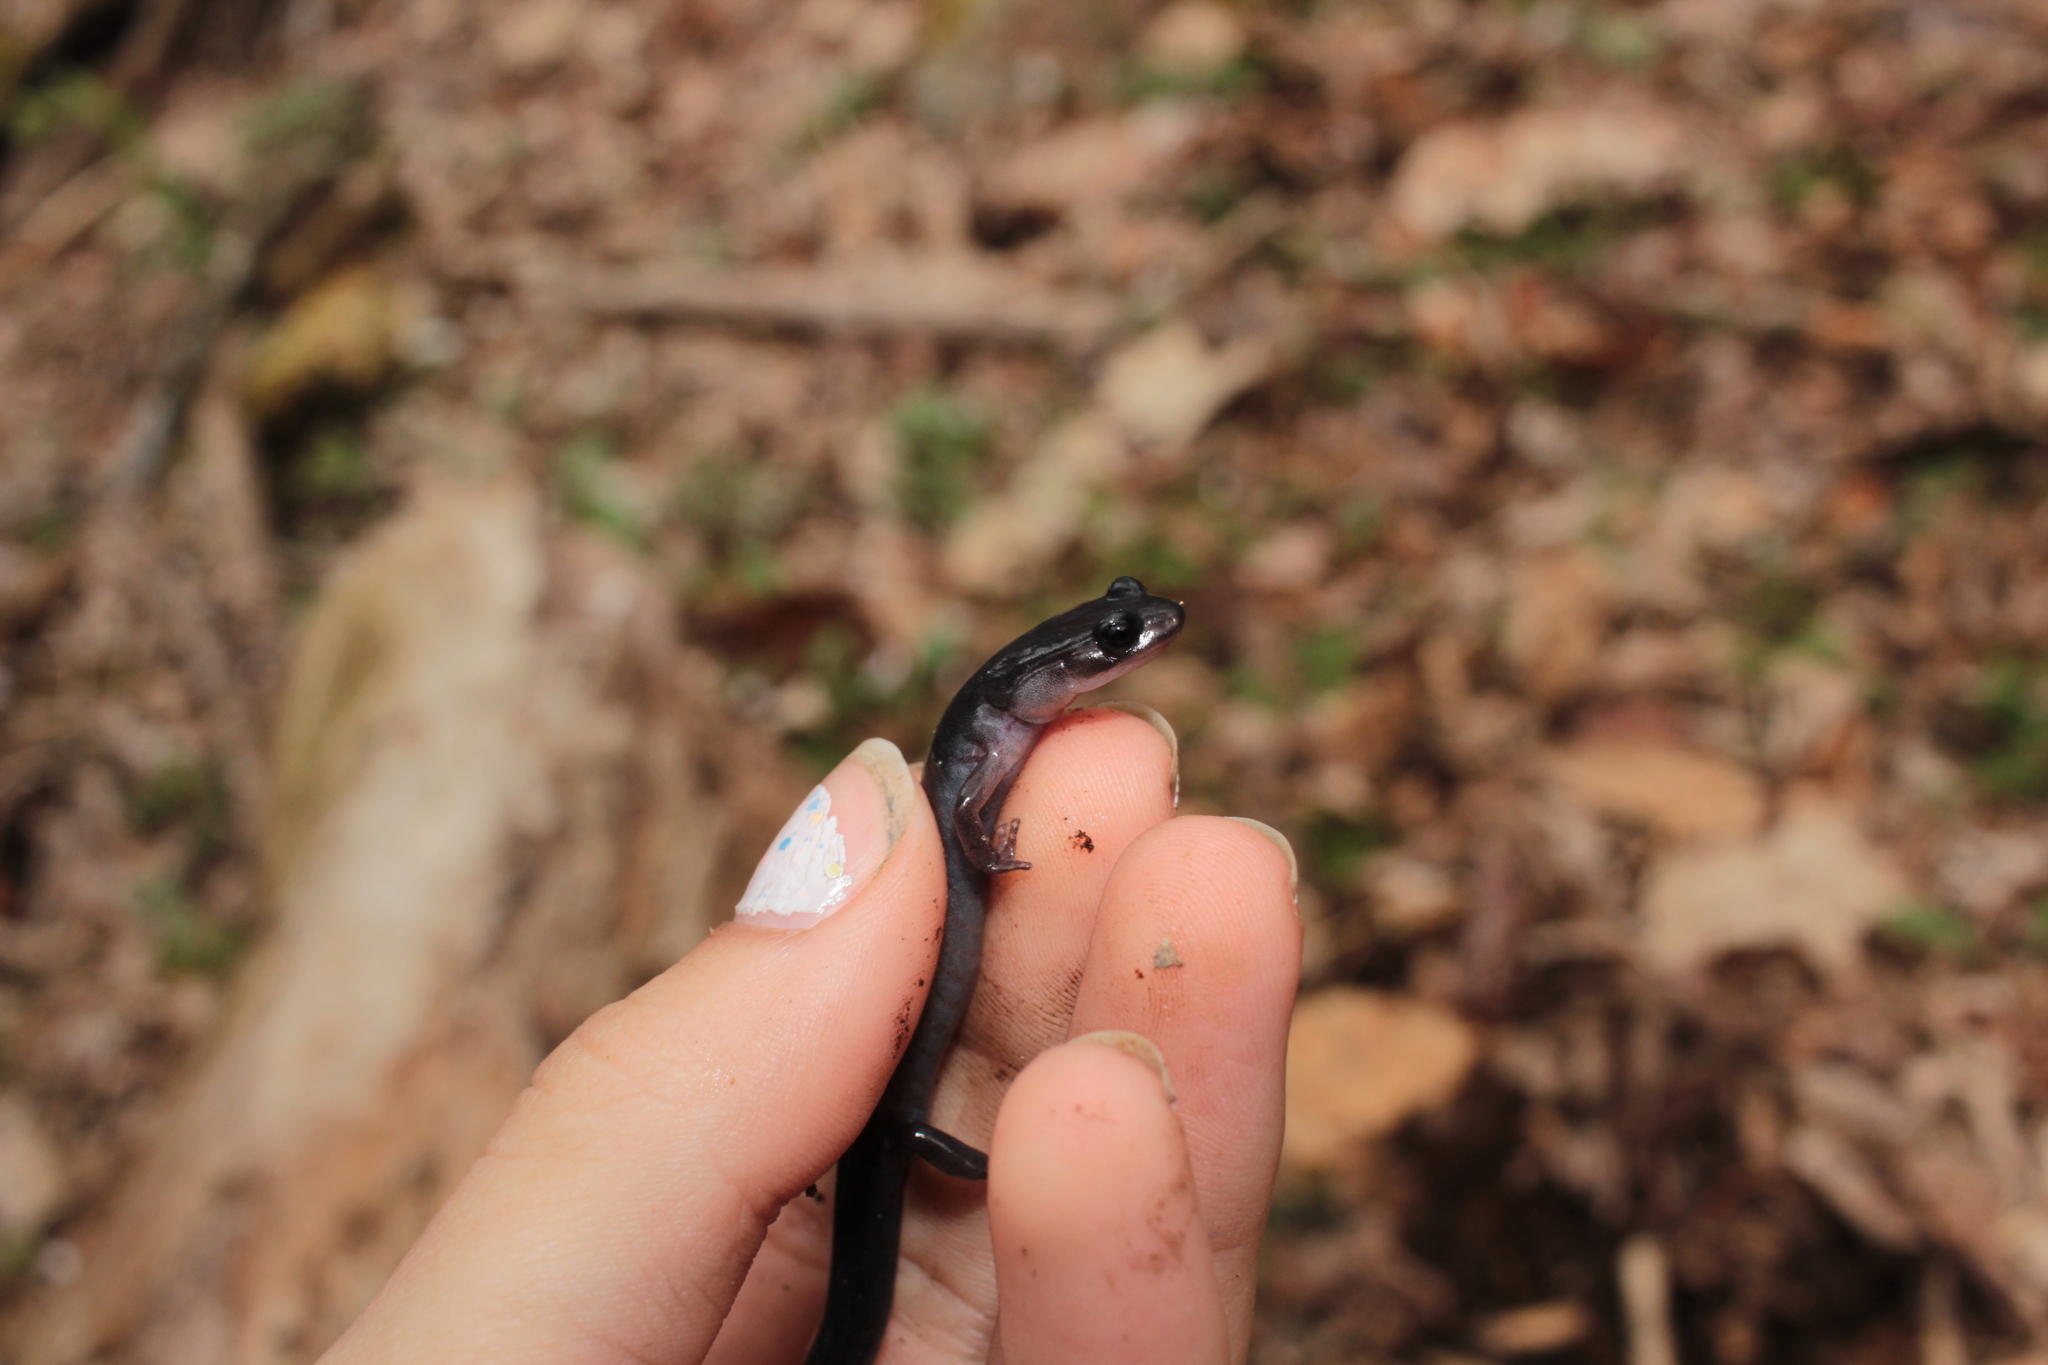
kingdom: Animalia
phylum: Chordata
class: Amphibia
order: Caudata
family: Plethodontidae
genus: Plethodon
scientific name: Plethodon montanus
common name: Northern gray-cheeked salamander
